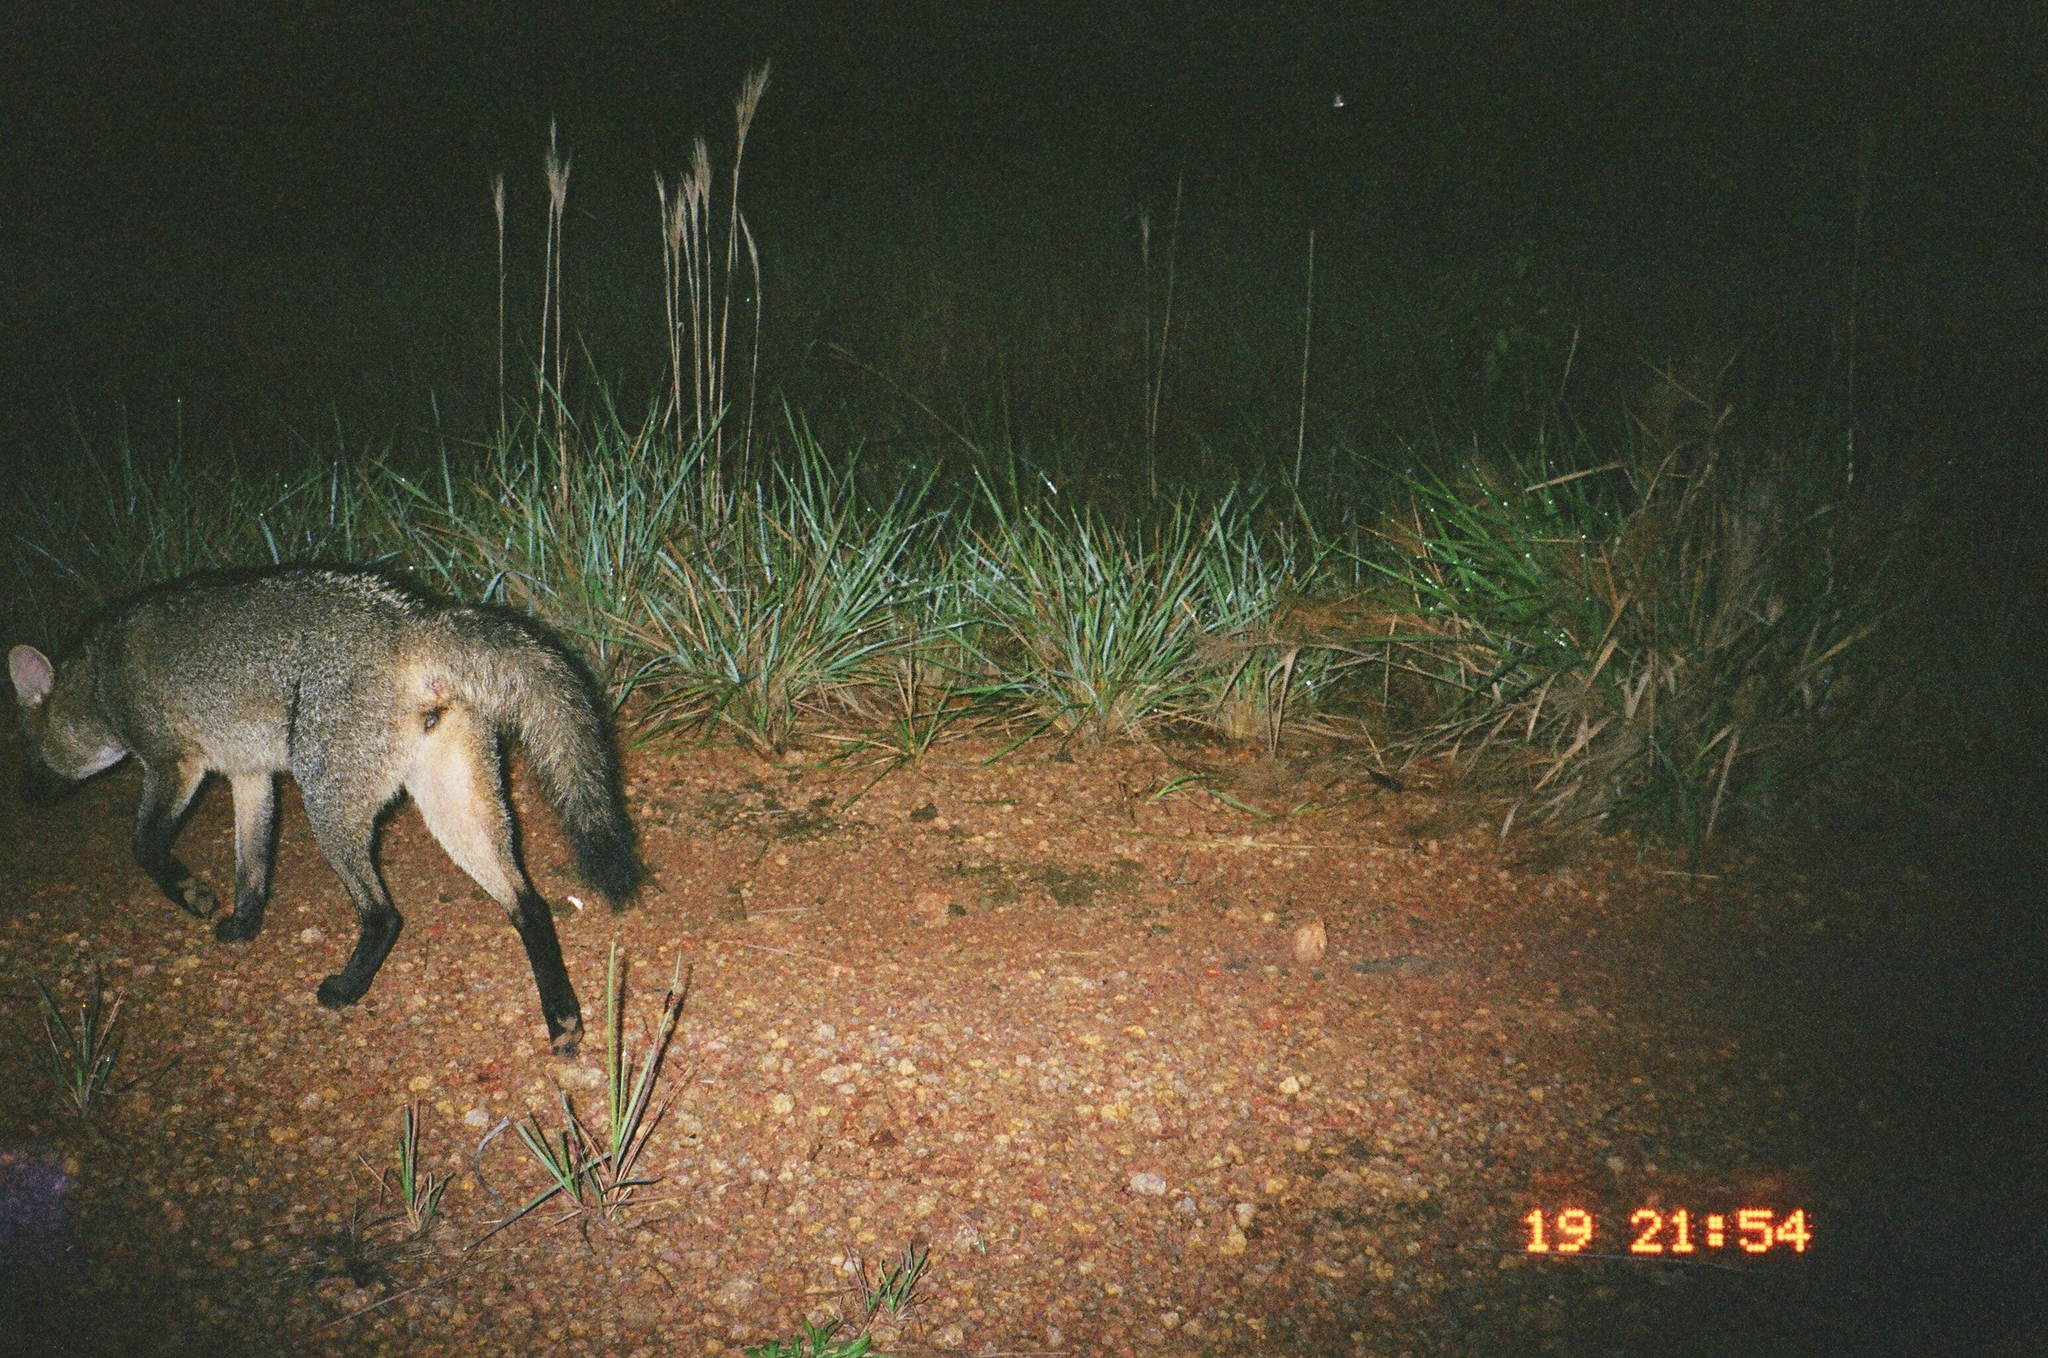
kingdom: Animalia
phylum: Chordata
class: Mammalia
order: Carnivora
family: Canidae
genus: Cerdocyon
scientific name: Cerdocyon thous
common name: Crab-eating fox
